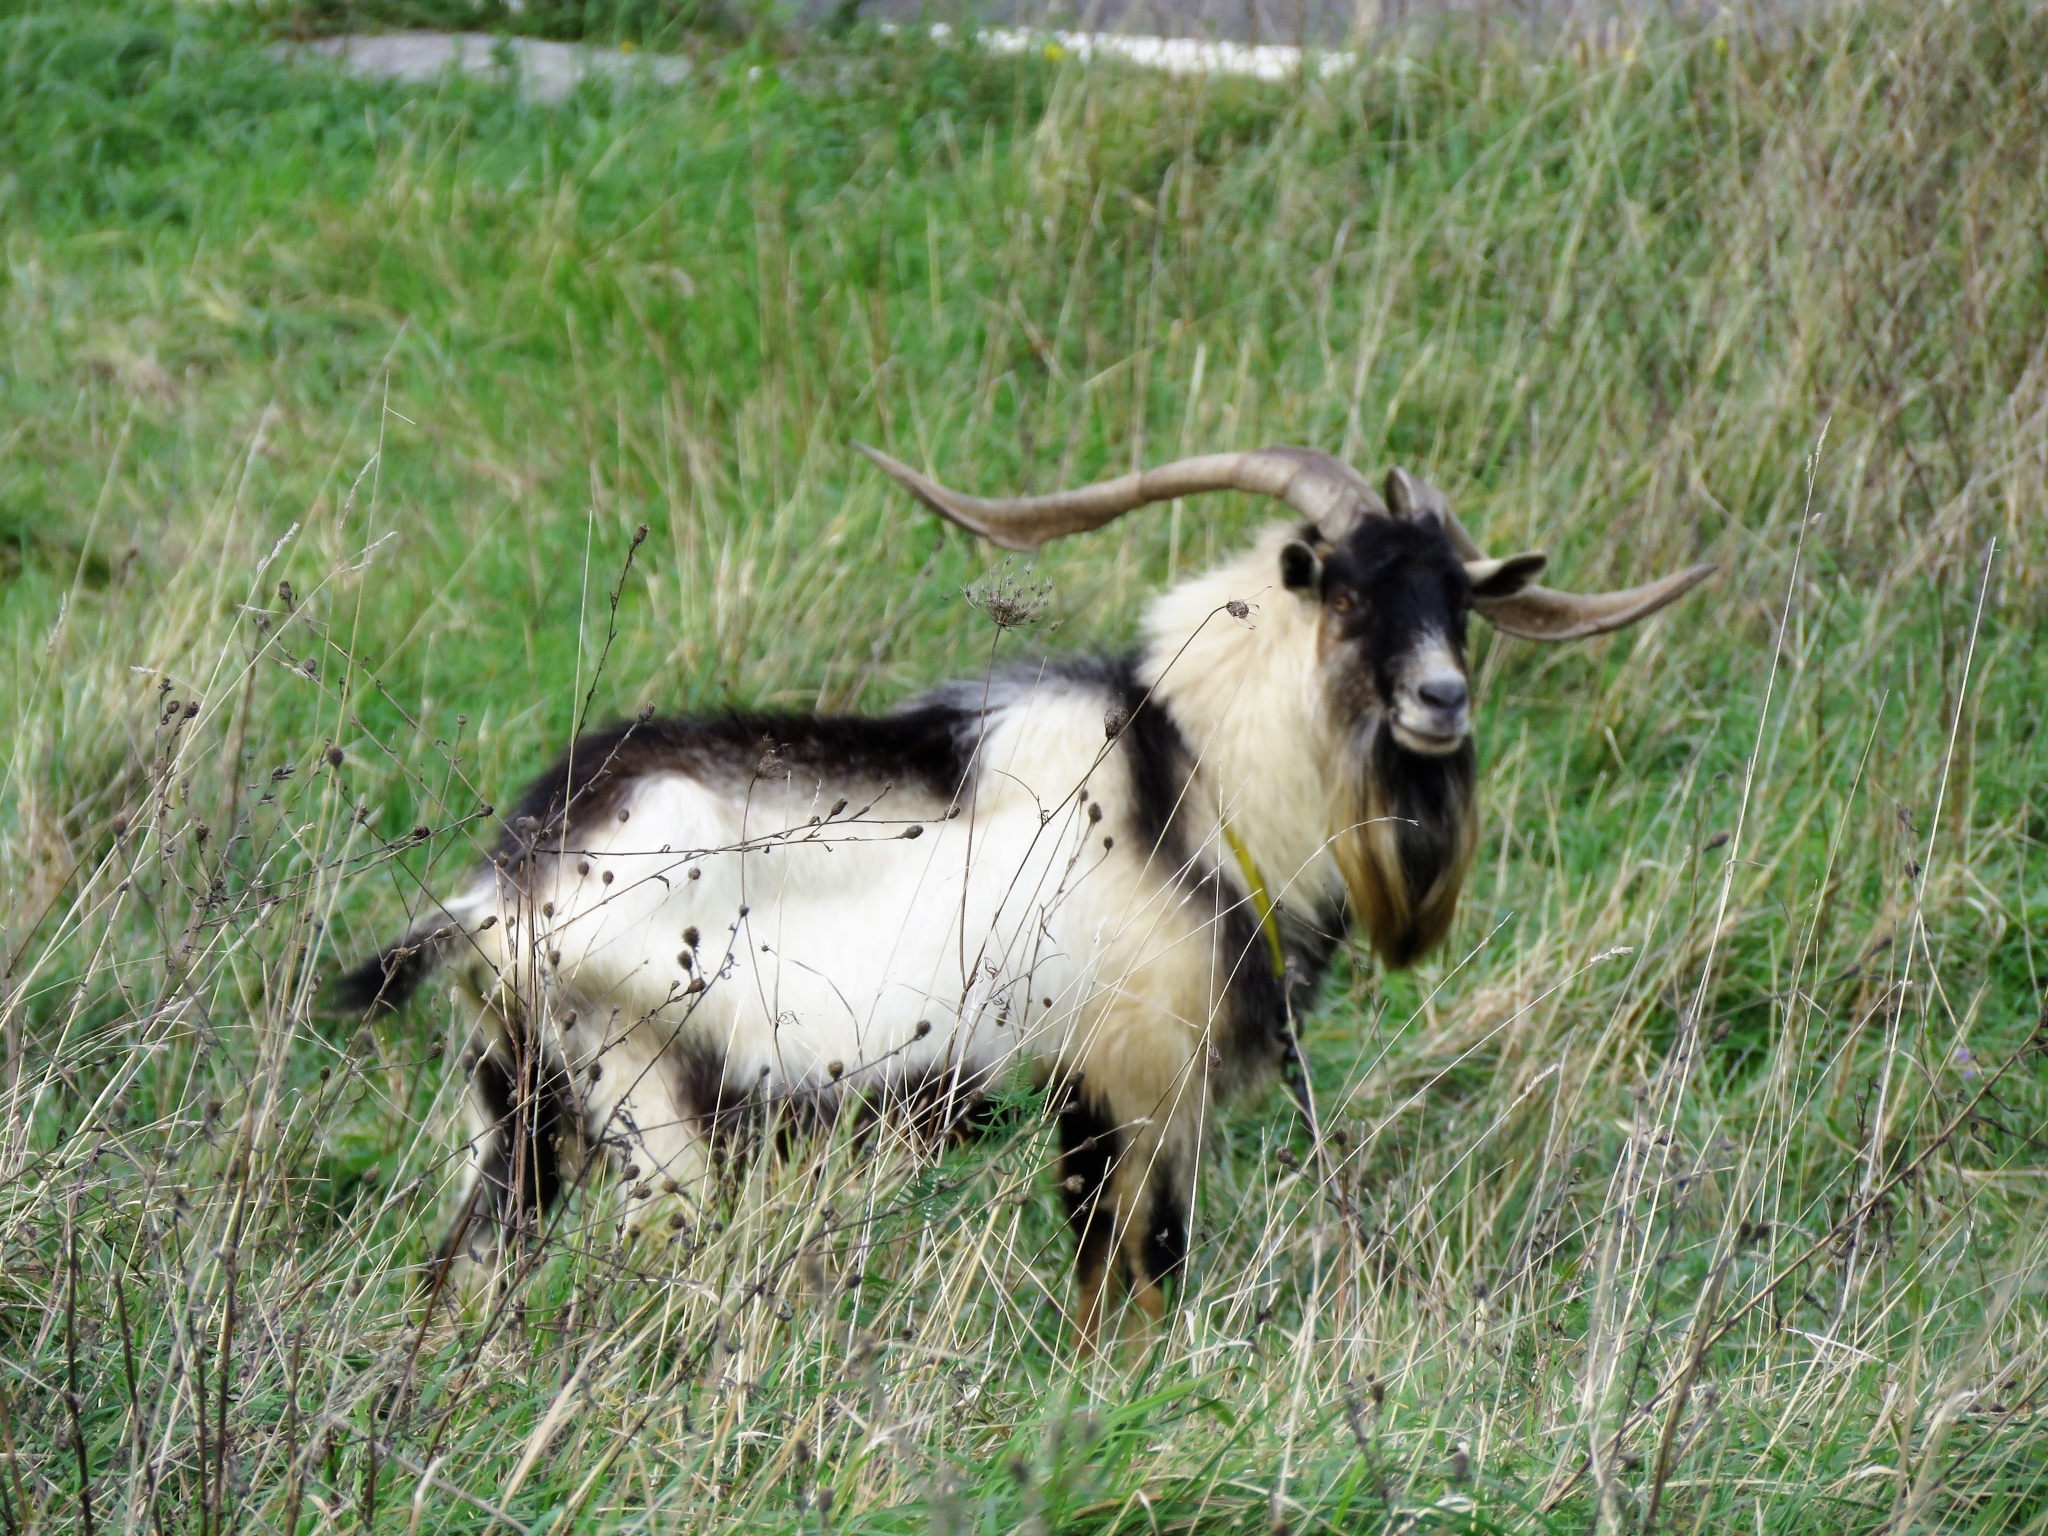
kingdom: Animalia
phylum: Chordata
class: Mammalia
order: Artiodactyla
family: Bovidae
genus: Capra
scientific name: Capra hircus
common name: Domestic goat
